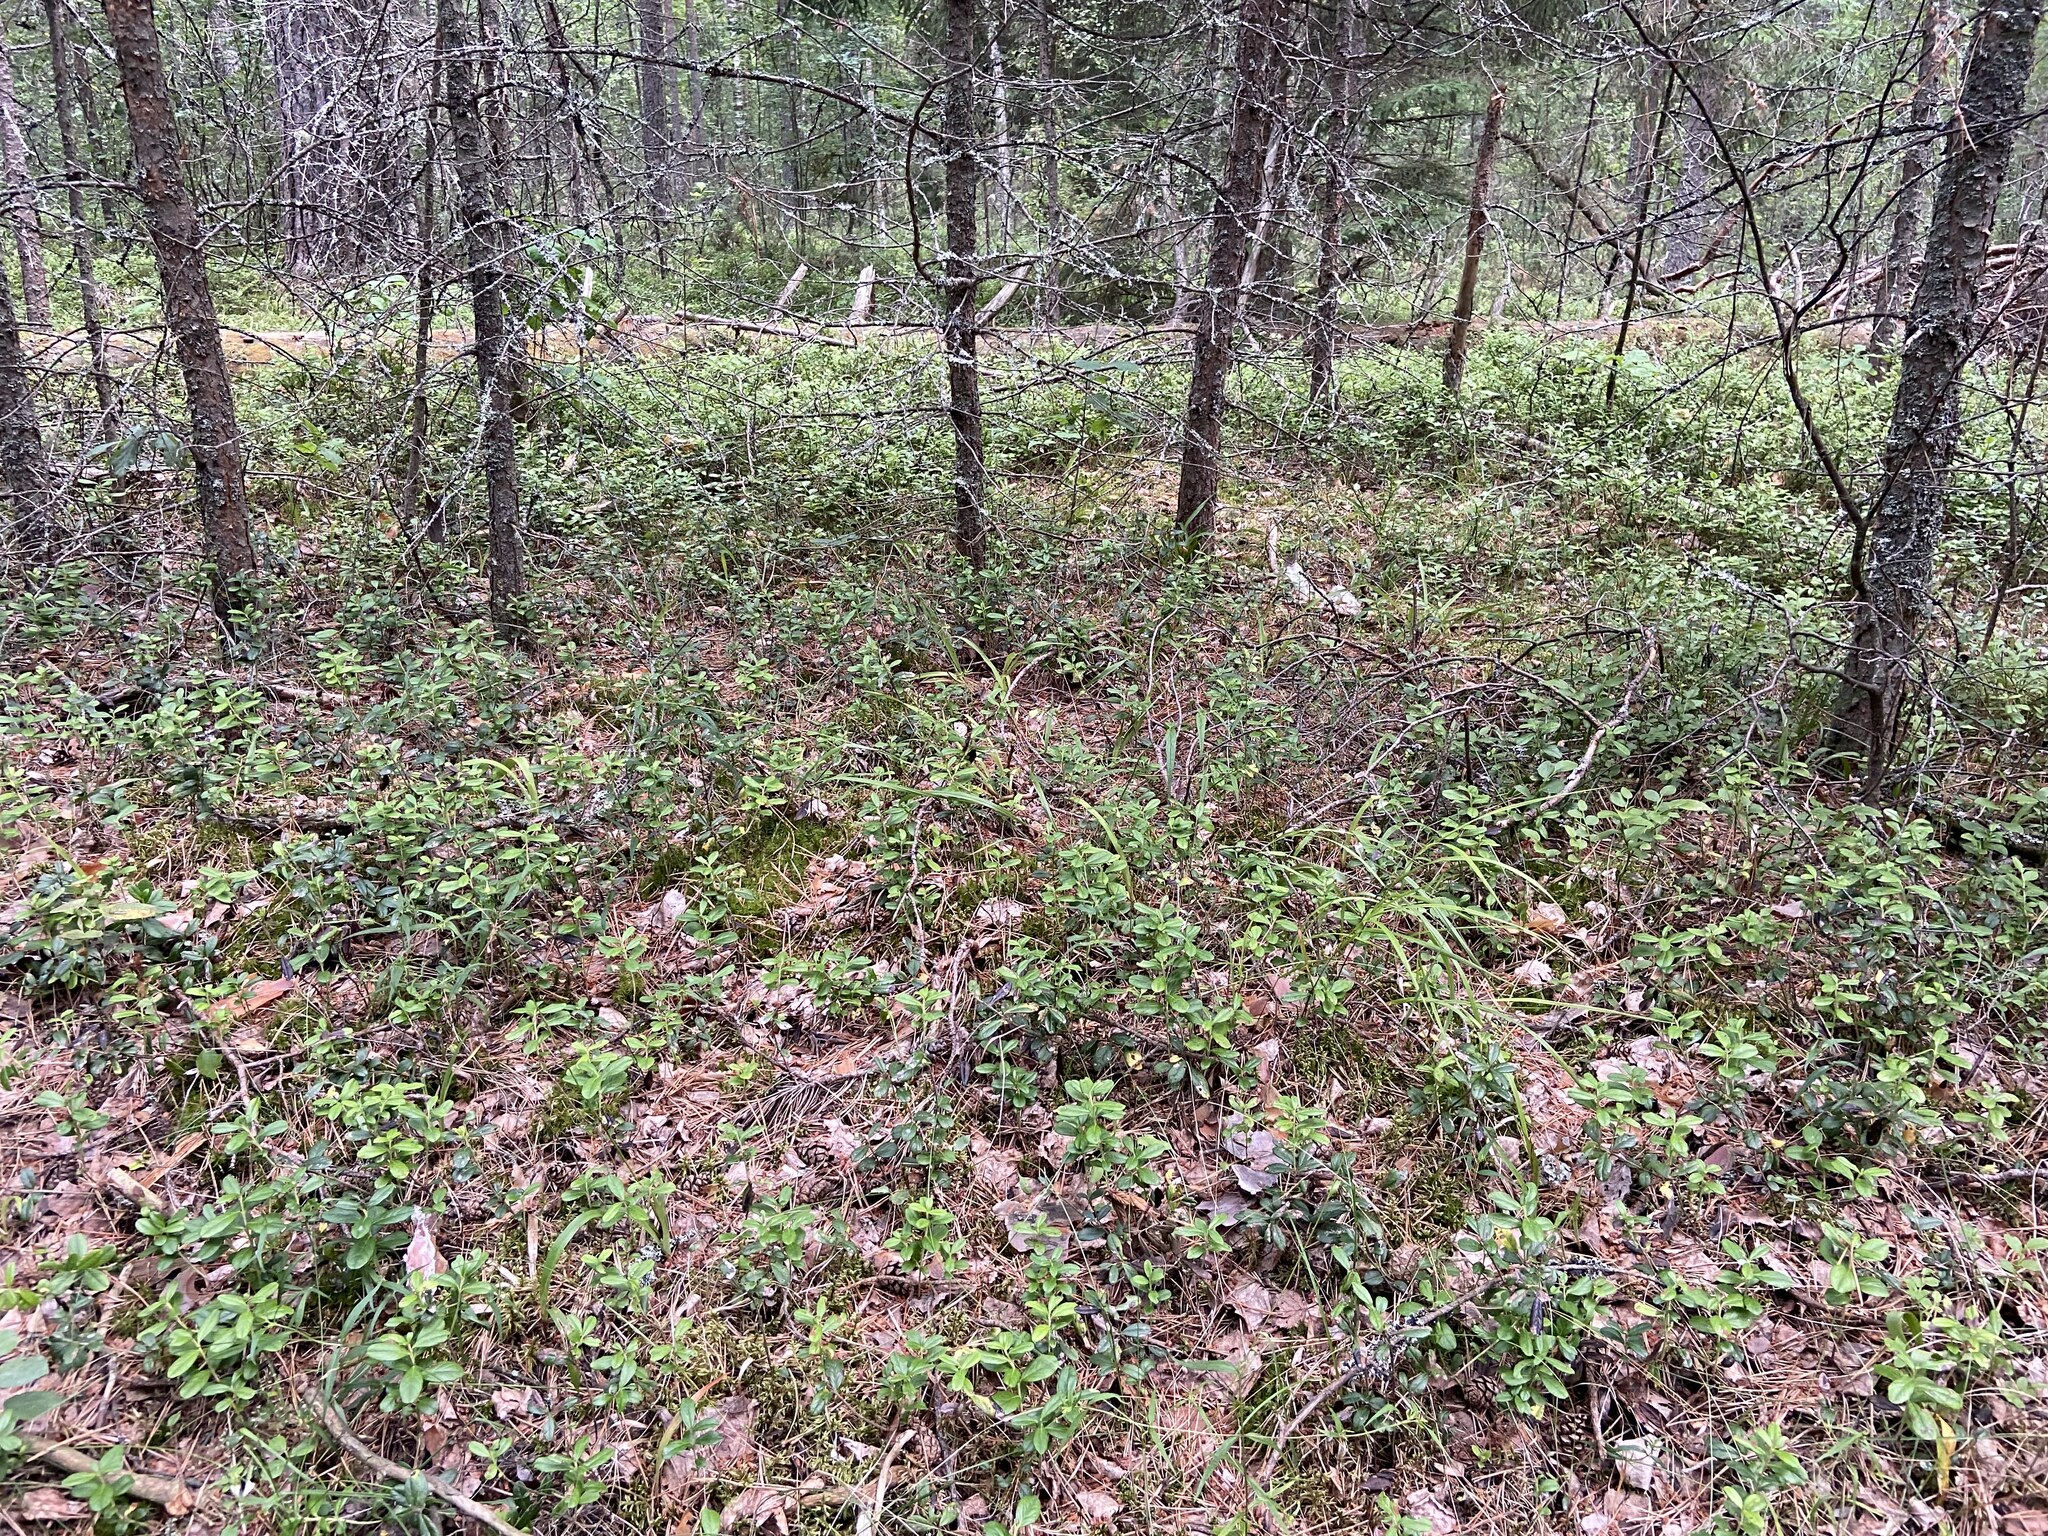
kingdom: Plantae
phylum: Tracheophyta
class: Magnoliopsida
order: Ericales
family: Ericaceae
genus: Vaccinium
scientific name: Vaccinium vitis-idaea
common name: Cowberry
